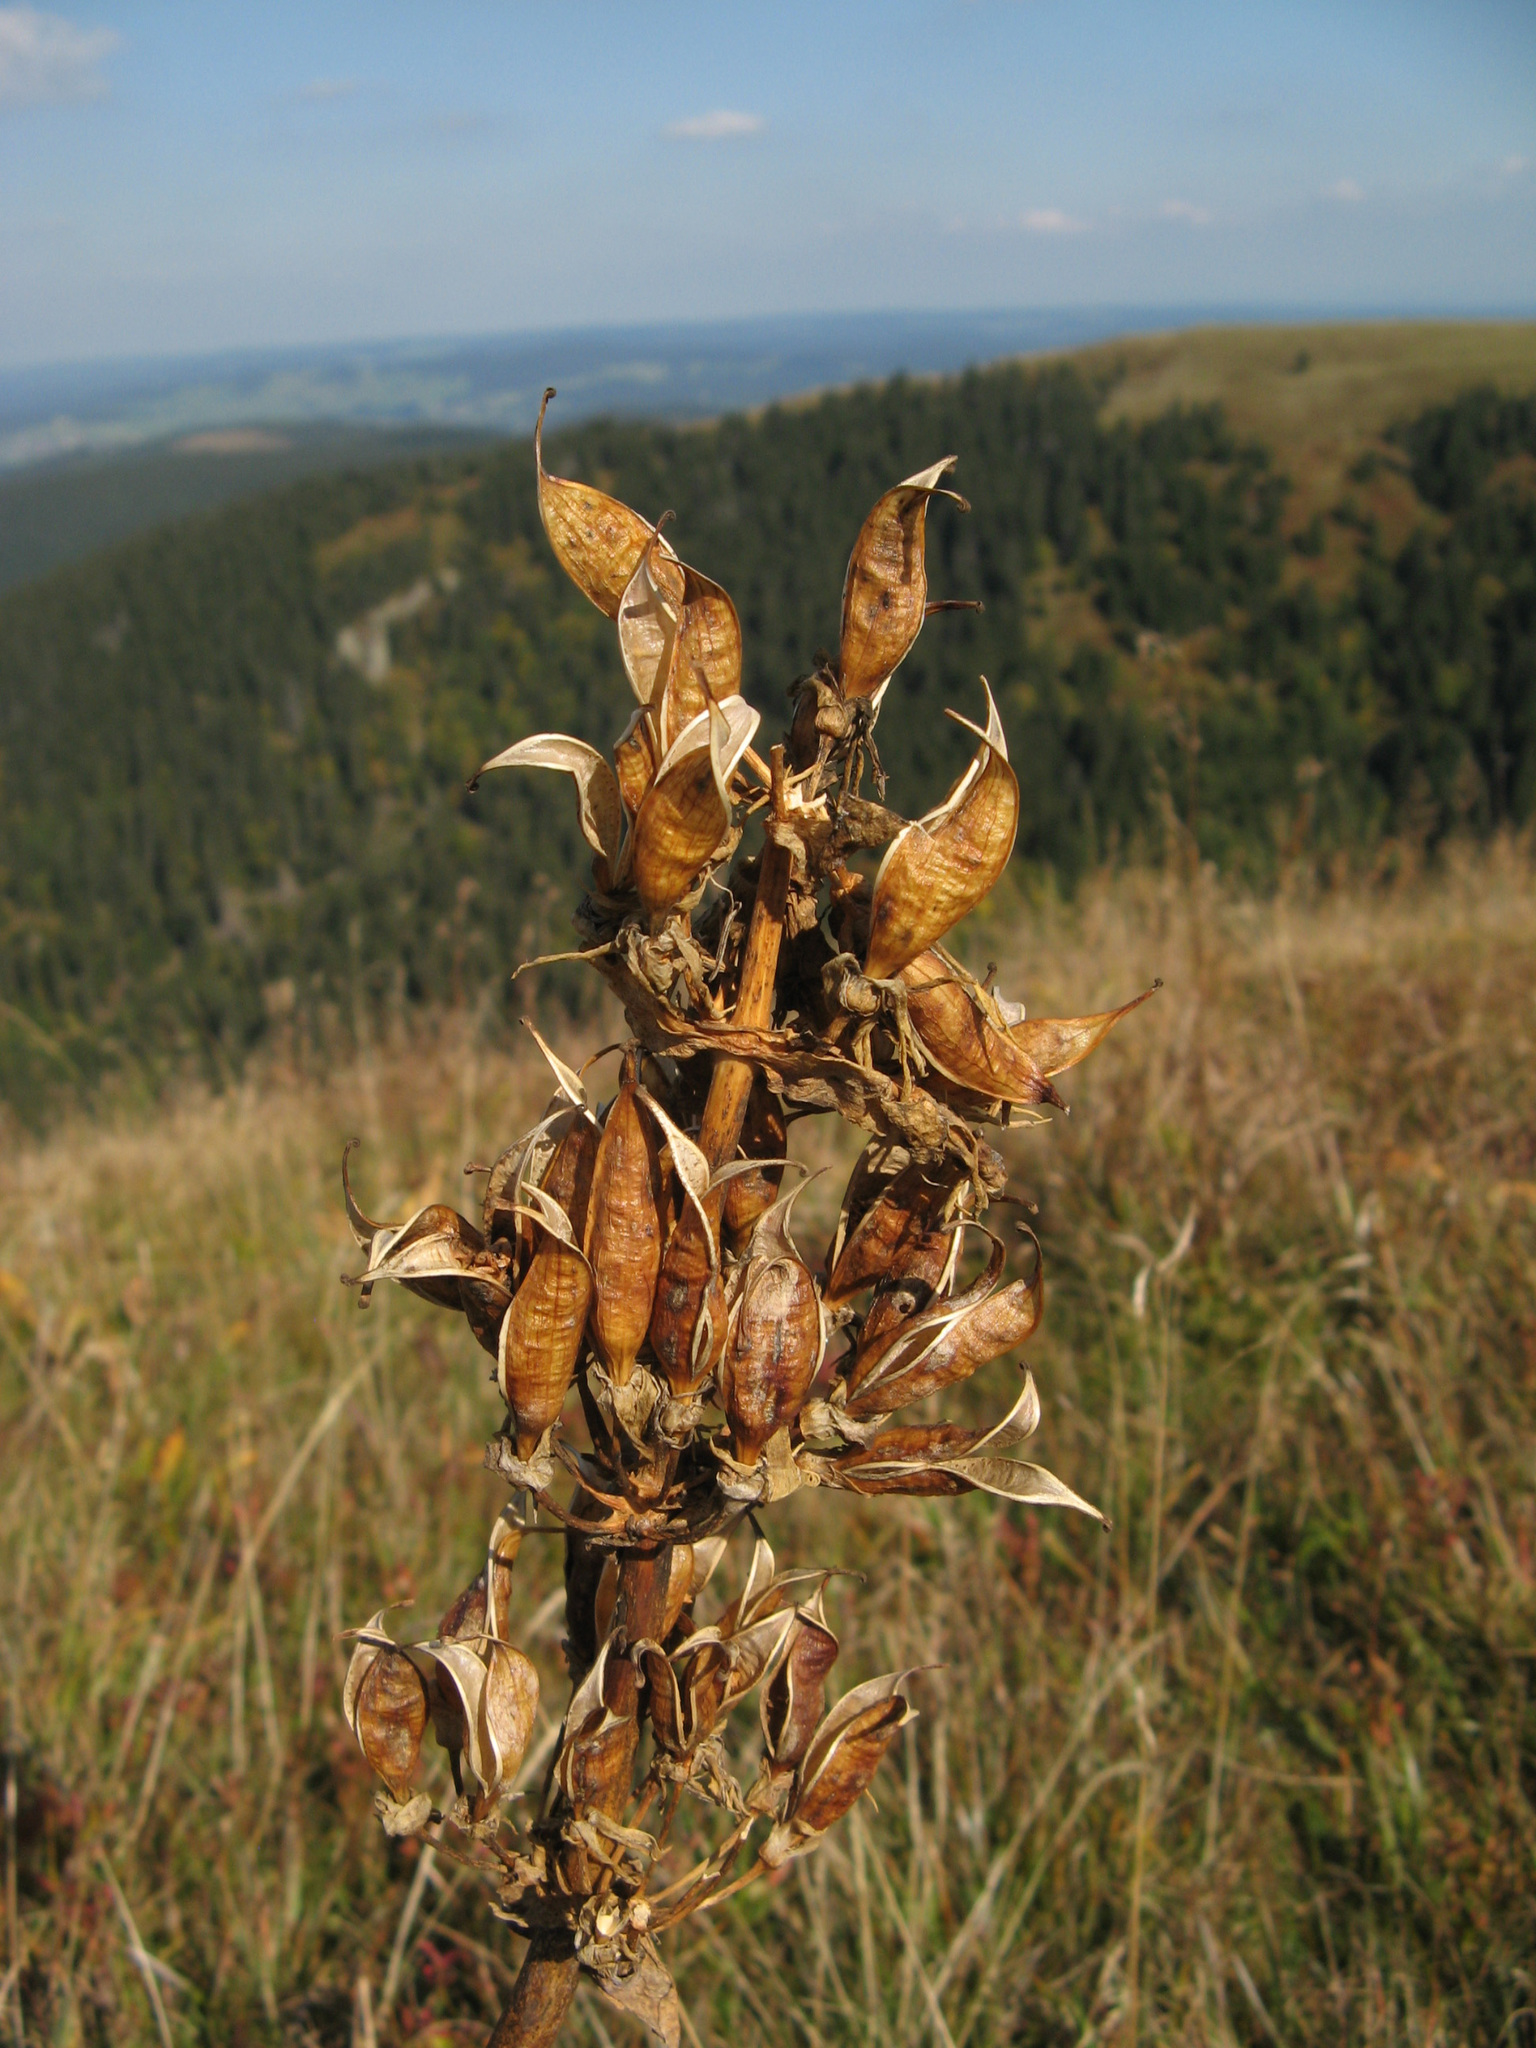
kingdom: Plantae
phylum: Tracheophyta
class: Magnoliopsida
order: Gentianales
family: Gentianaceae
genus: Gentiana
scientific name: Gentiana lutea
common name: Great yellow gentian
